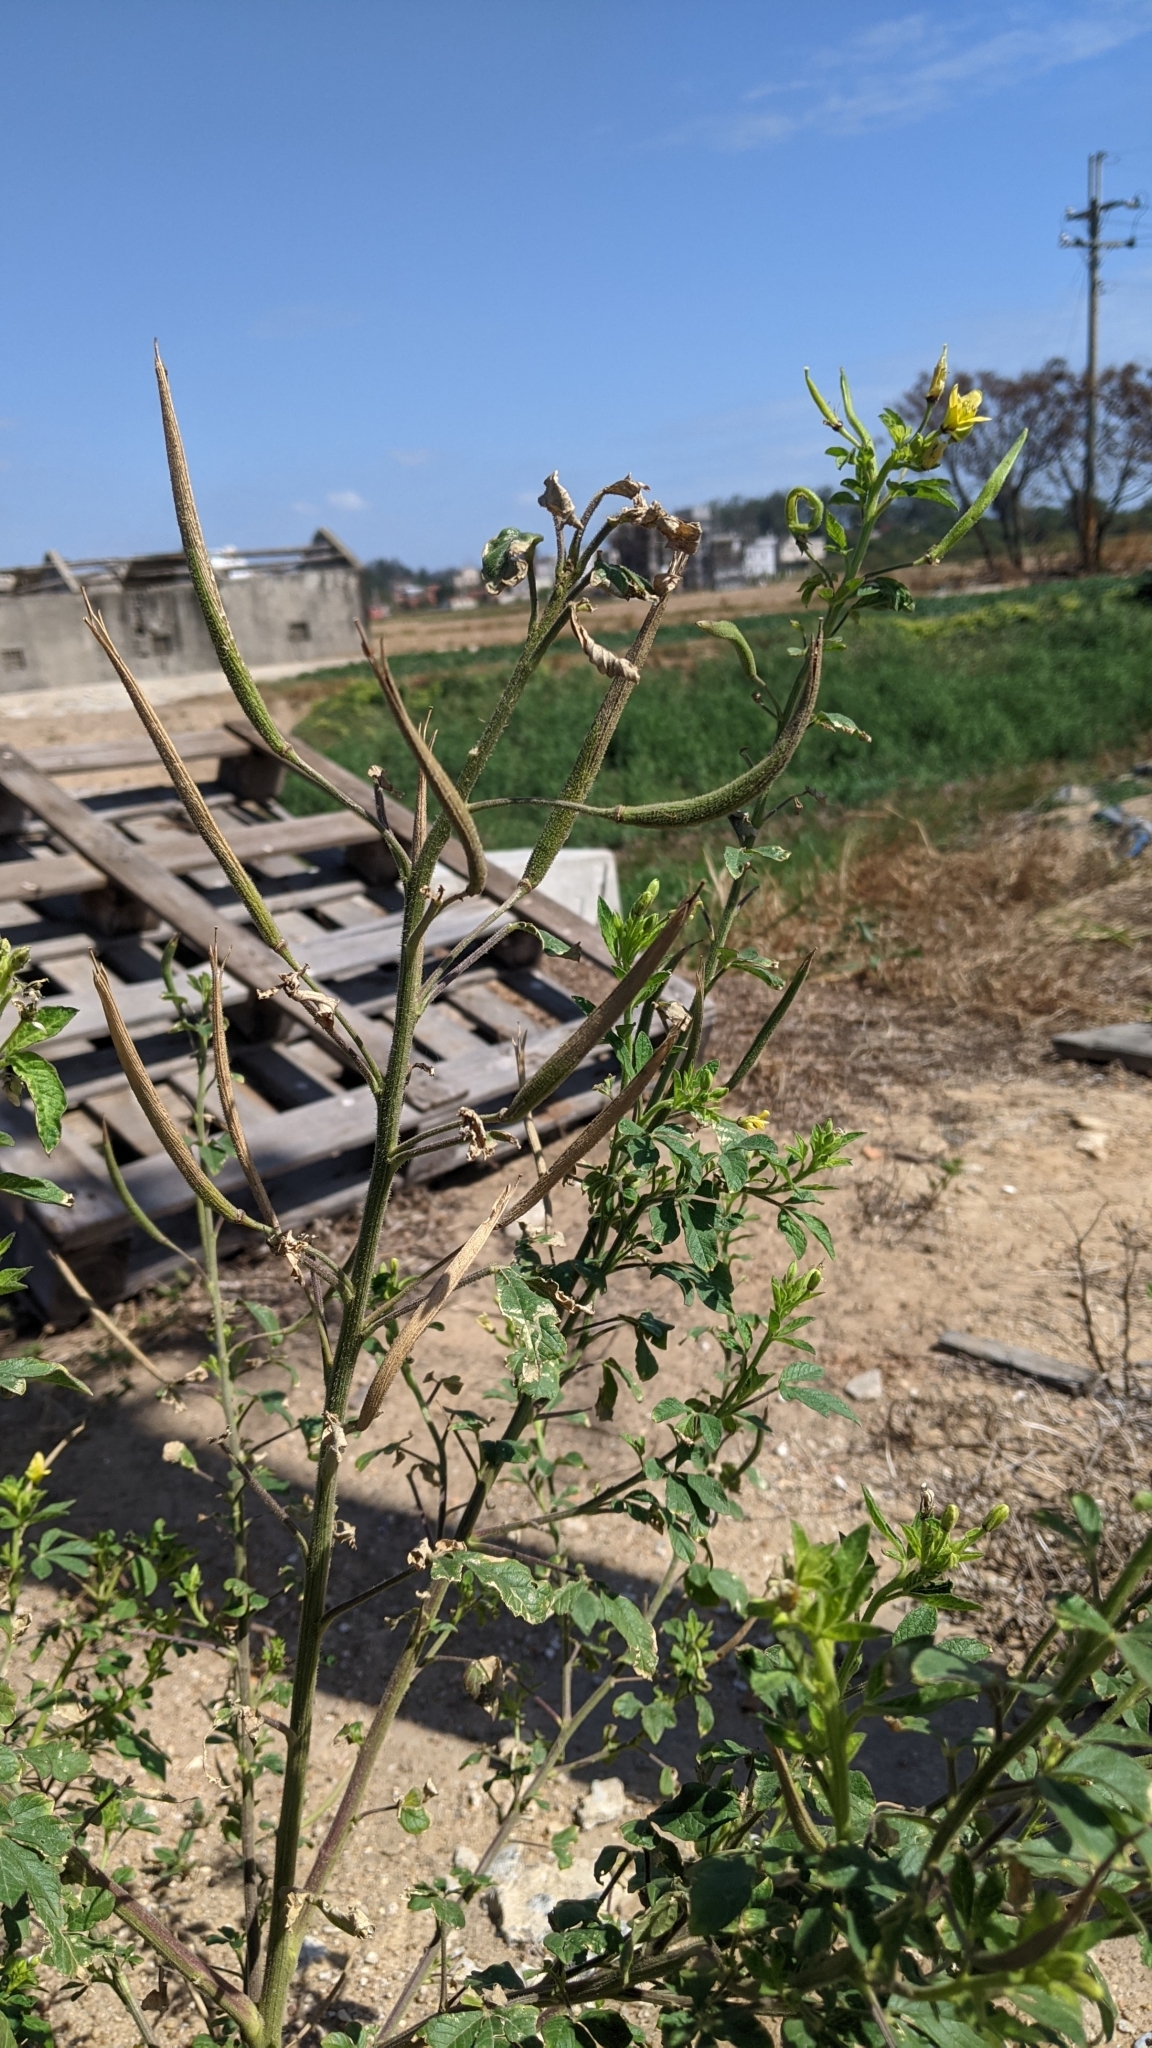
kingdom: Plantae
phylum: Tracheophyta
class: Magnoliopsida
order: Brassicales
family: Cleomaceae
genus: Arivela
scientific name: Arivela viscosa
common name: Asian spiderflower
